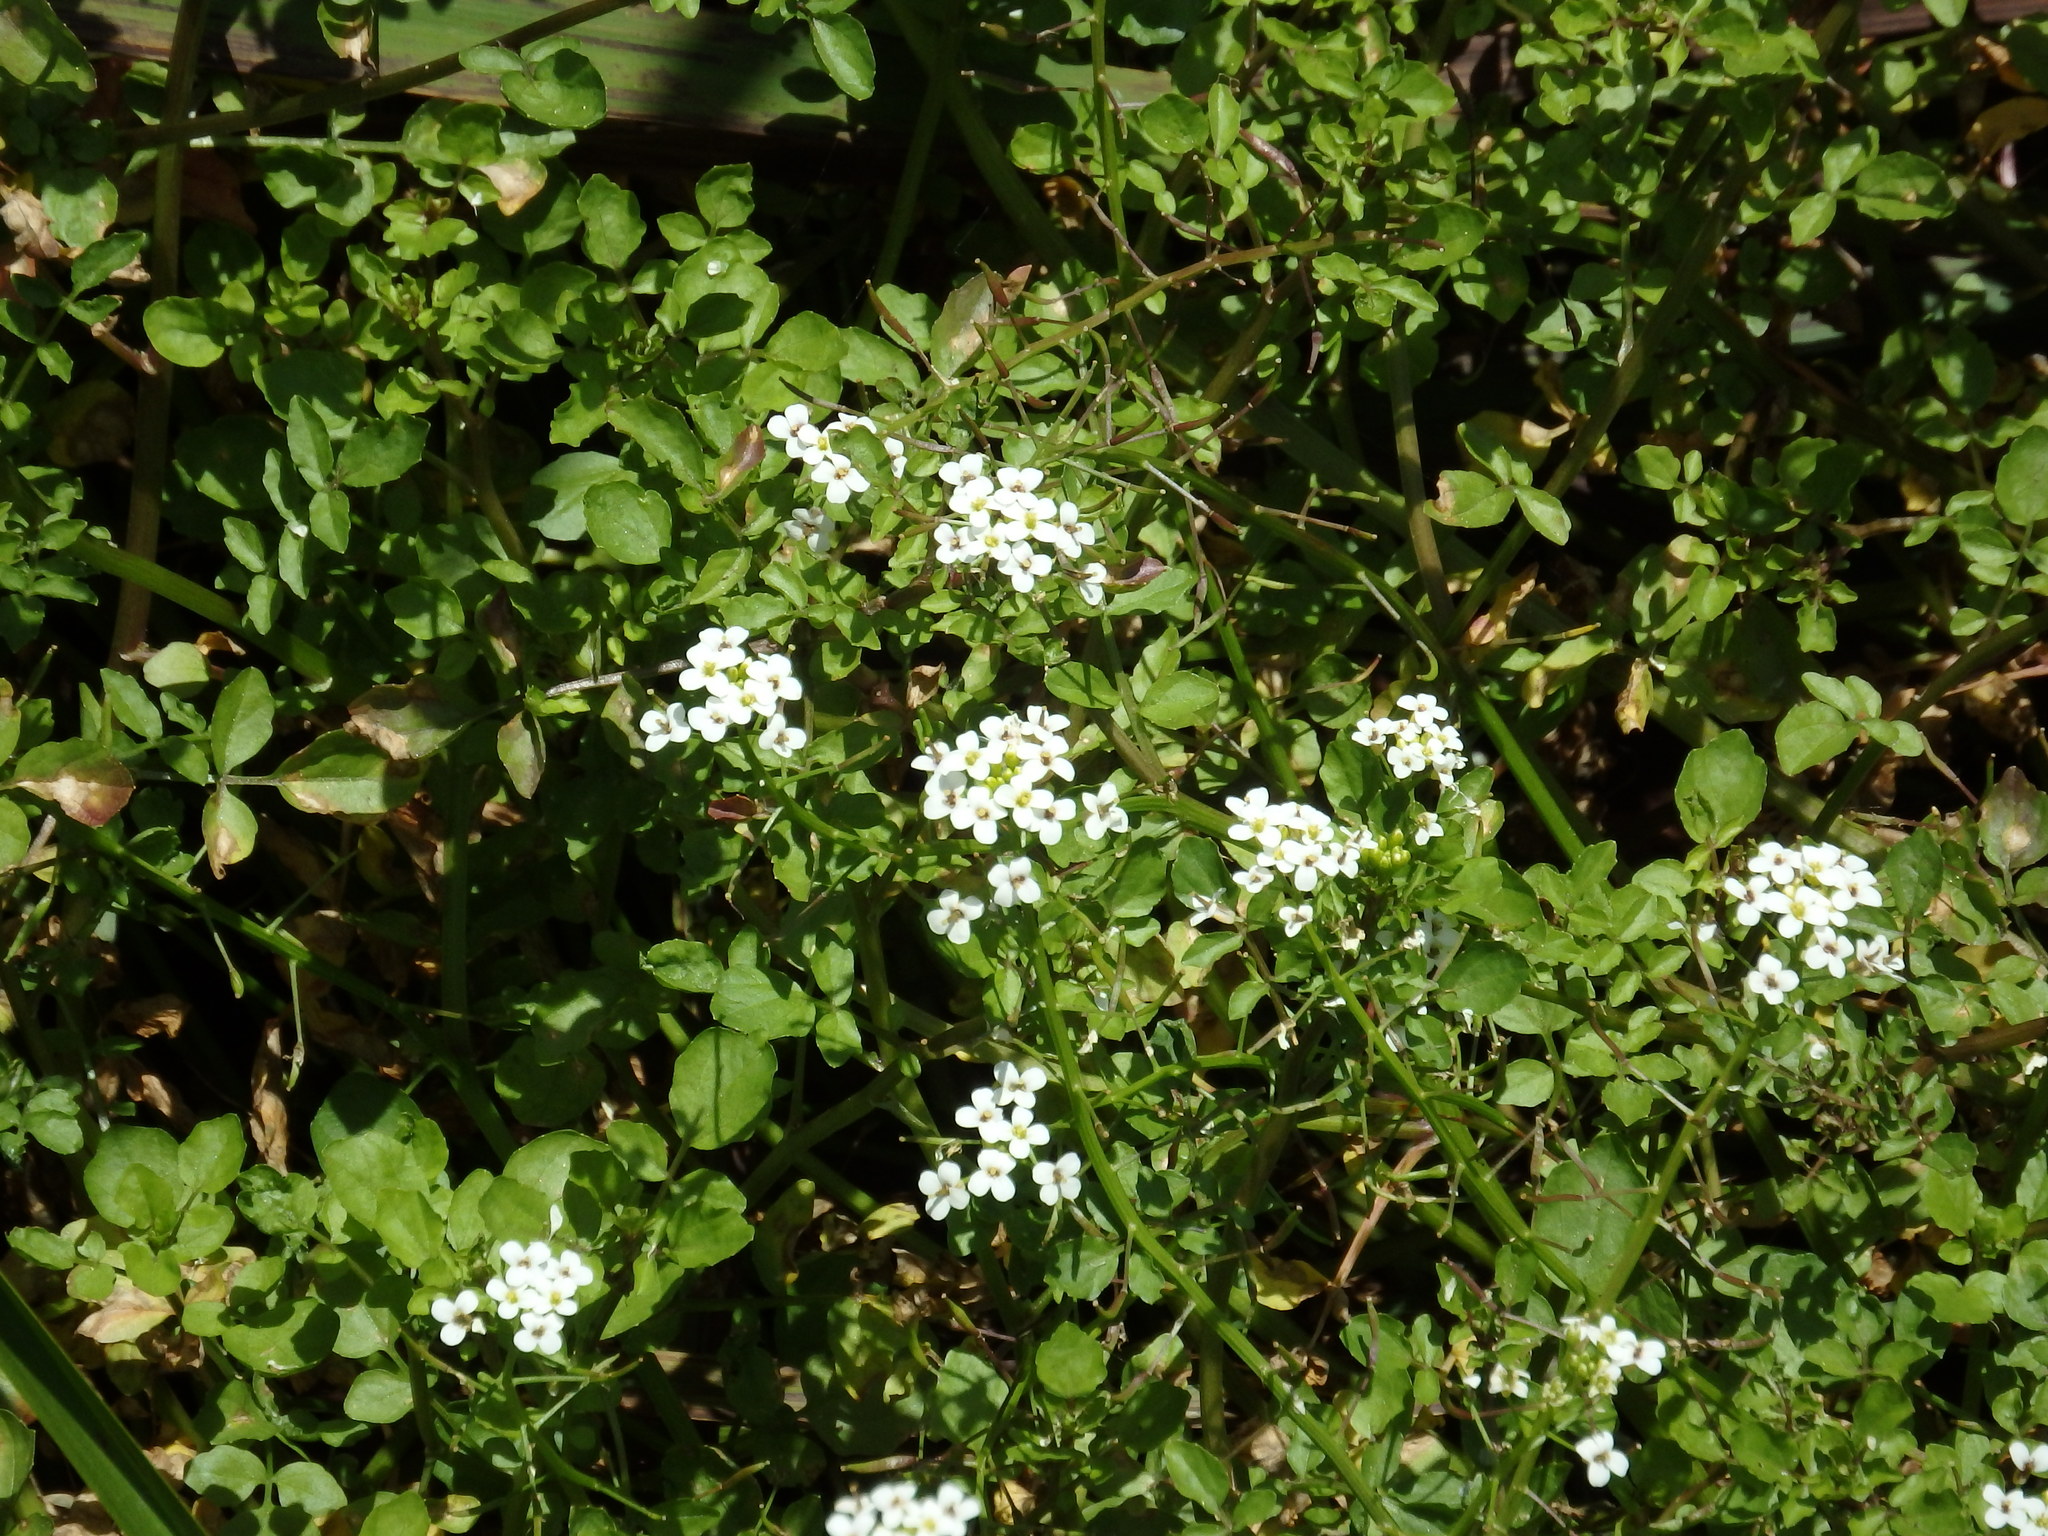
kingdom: Plantae
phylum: Tracheophyta
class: Magnoliopsida
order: Brassicales
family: Brassicaceae
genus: Nasturtium
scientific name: Nasturtium officinale
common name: Watercress
